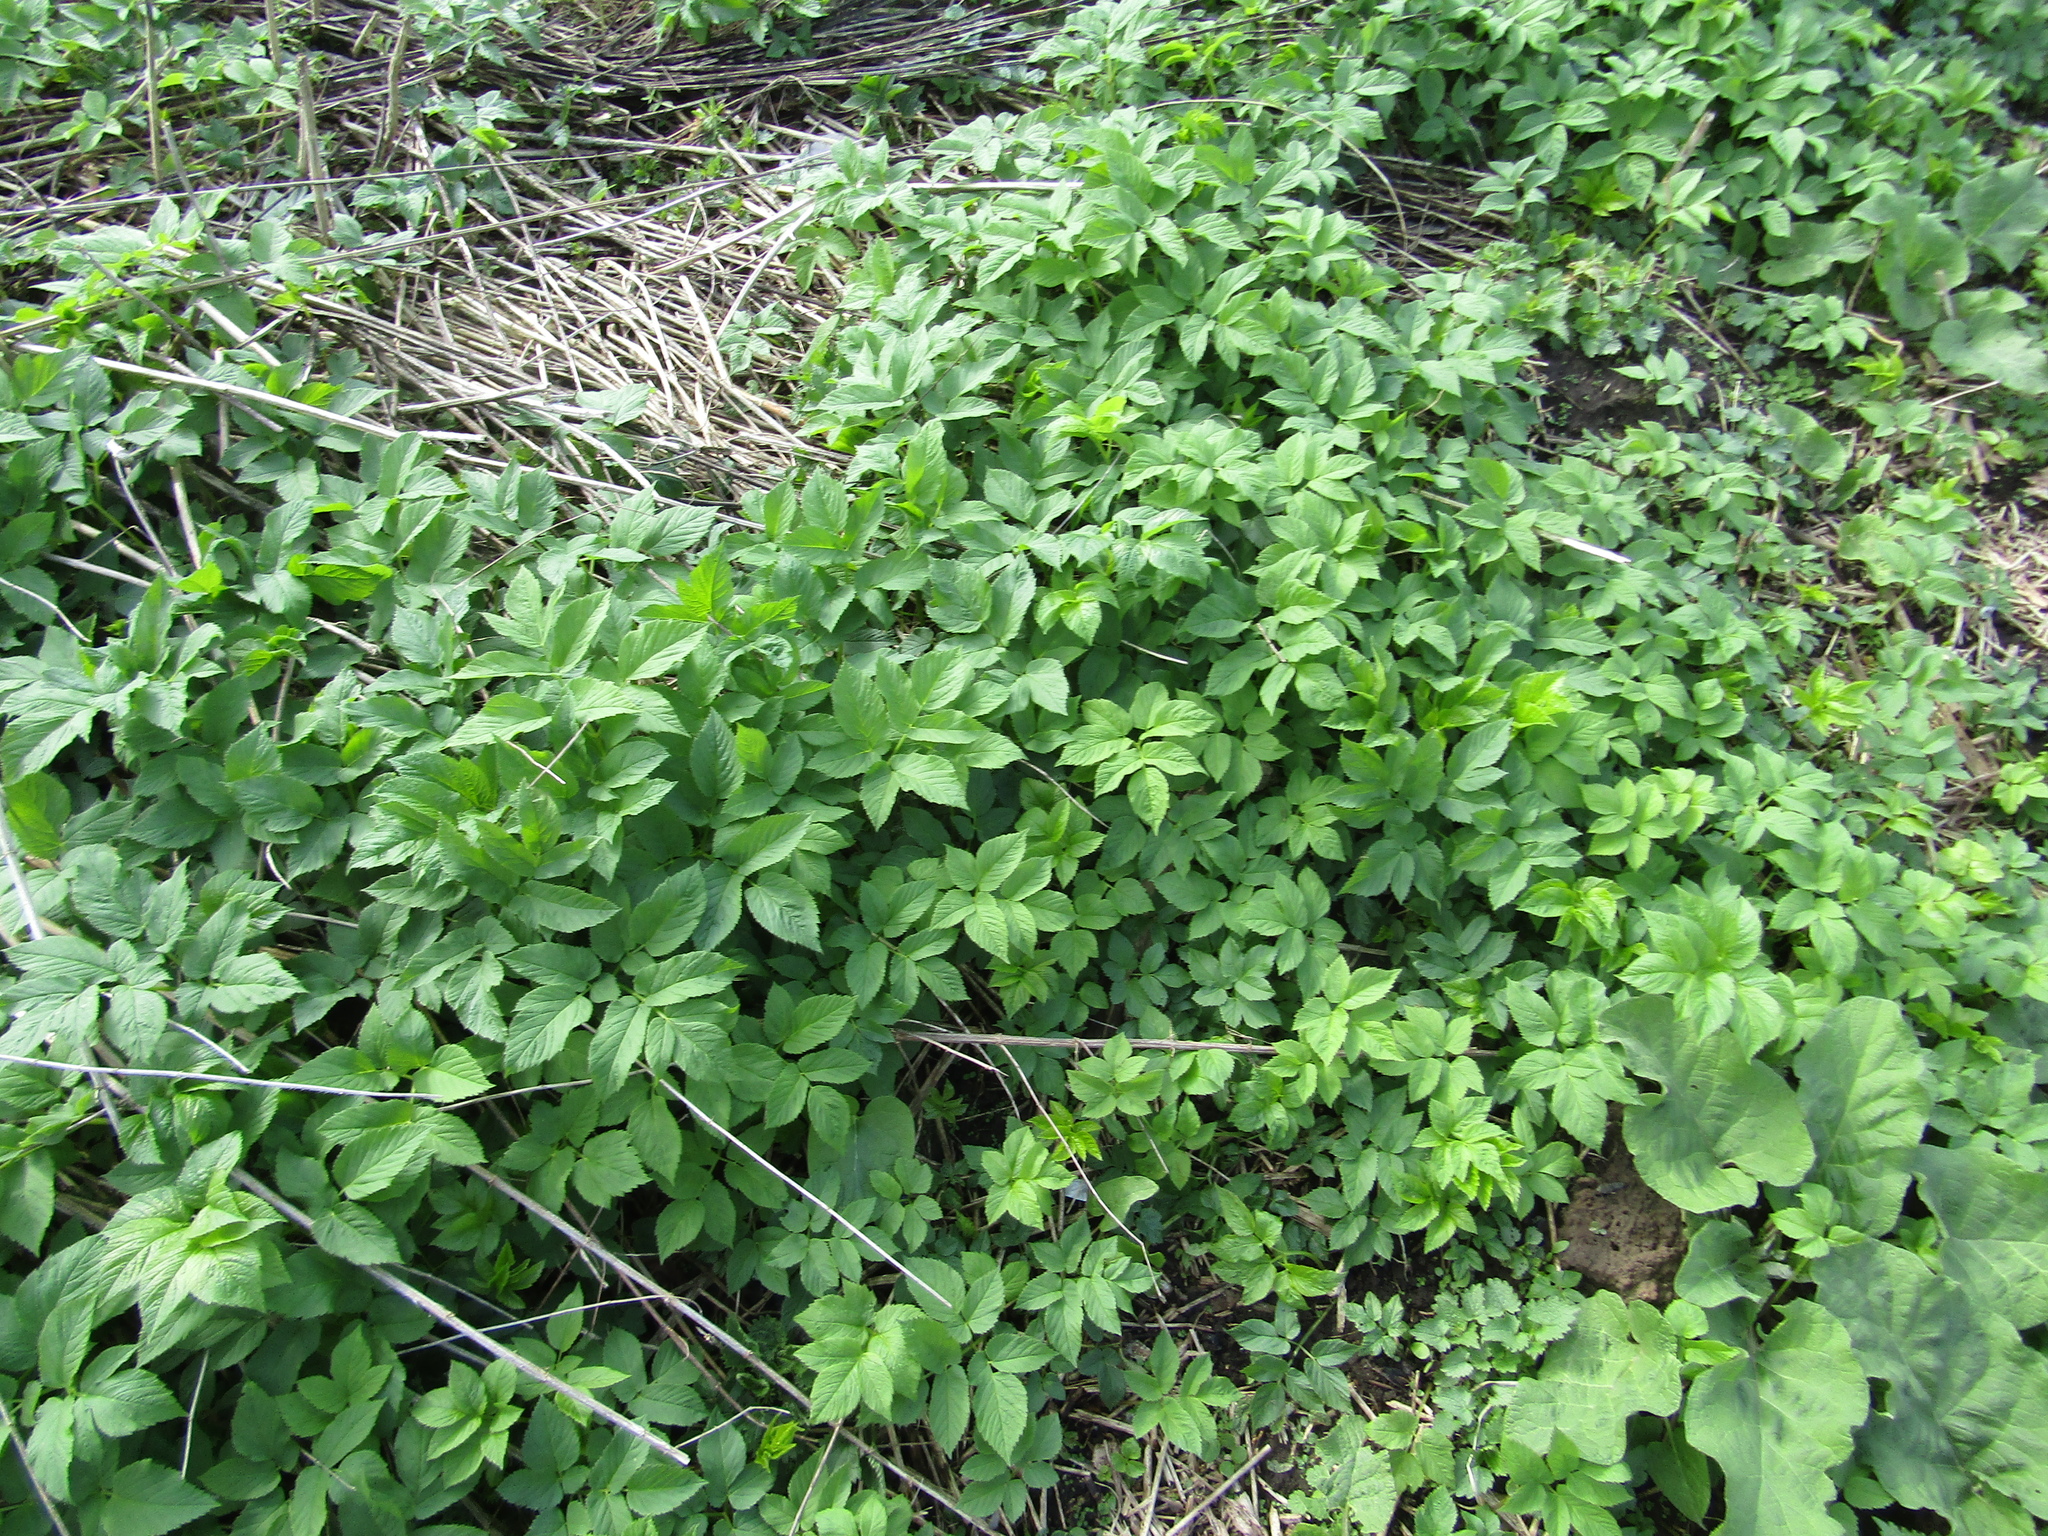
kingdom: Plantae
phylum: Tracheophyta
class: Magnoliopsida
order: Apiales
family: Apiaceae
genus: Aegopodium
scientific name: Aegopodium podagraria
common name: Ground-elder
